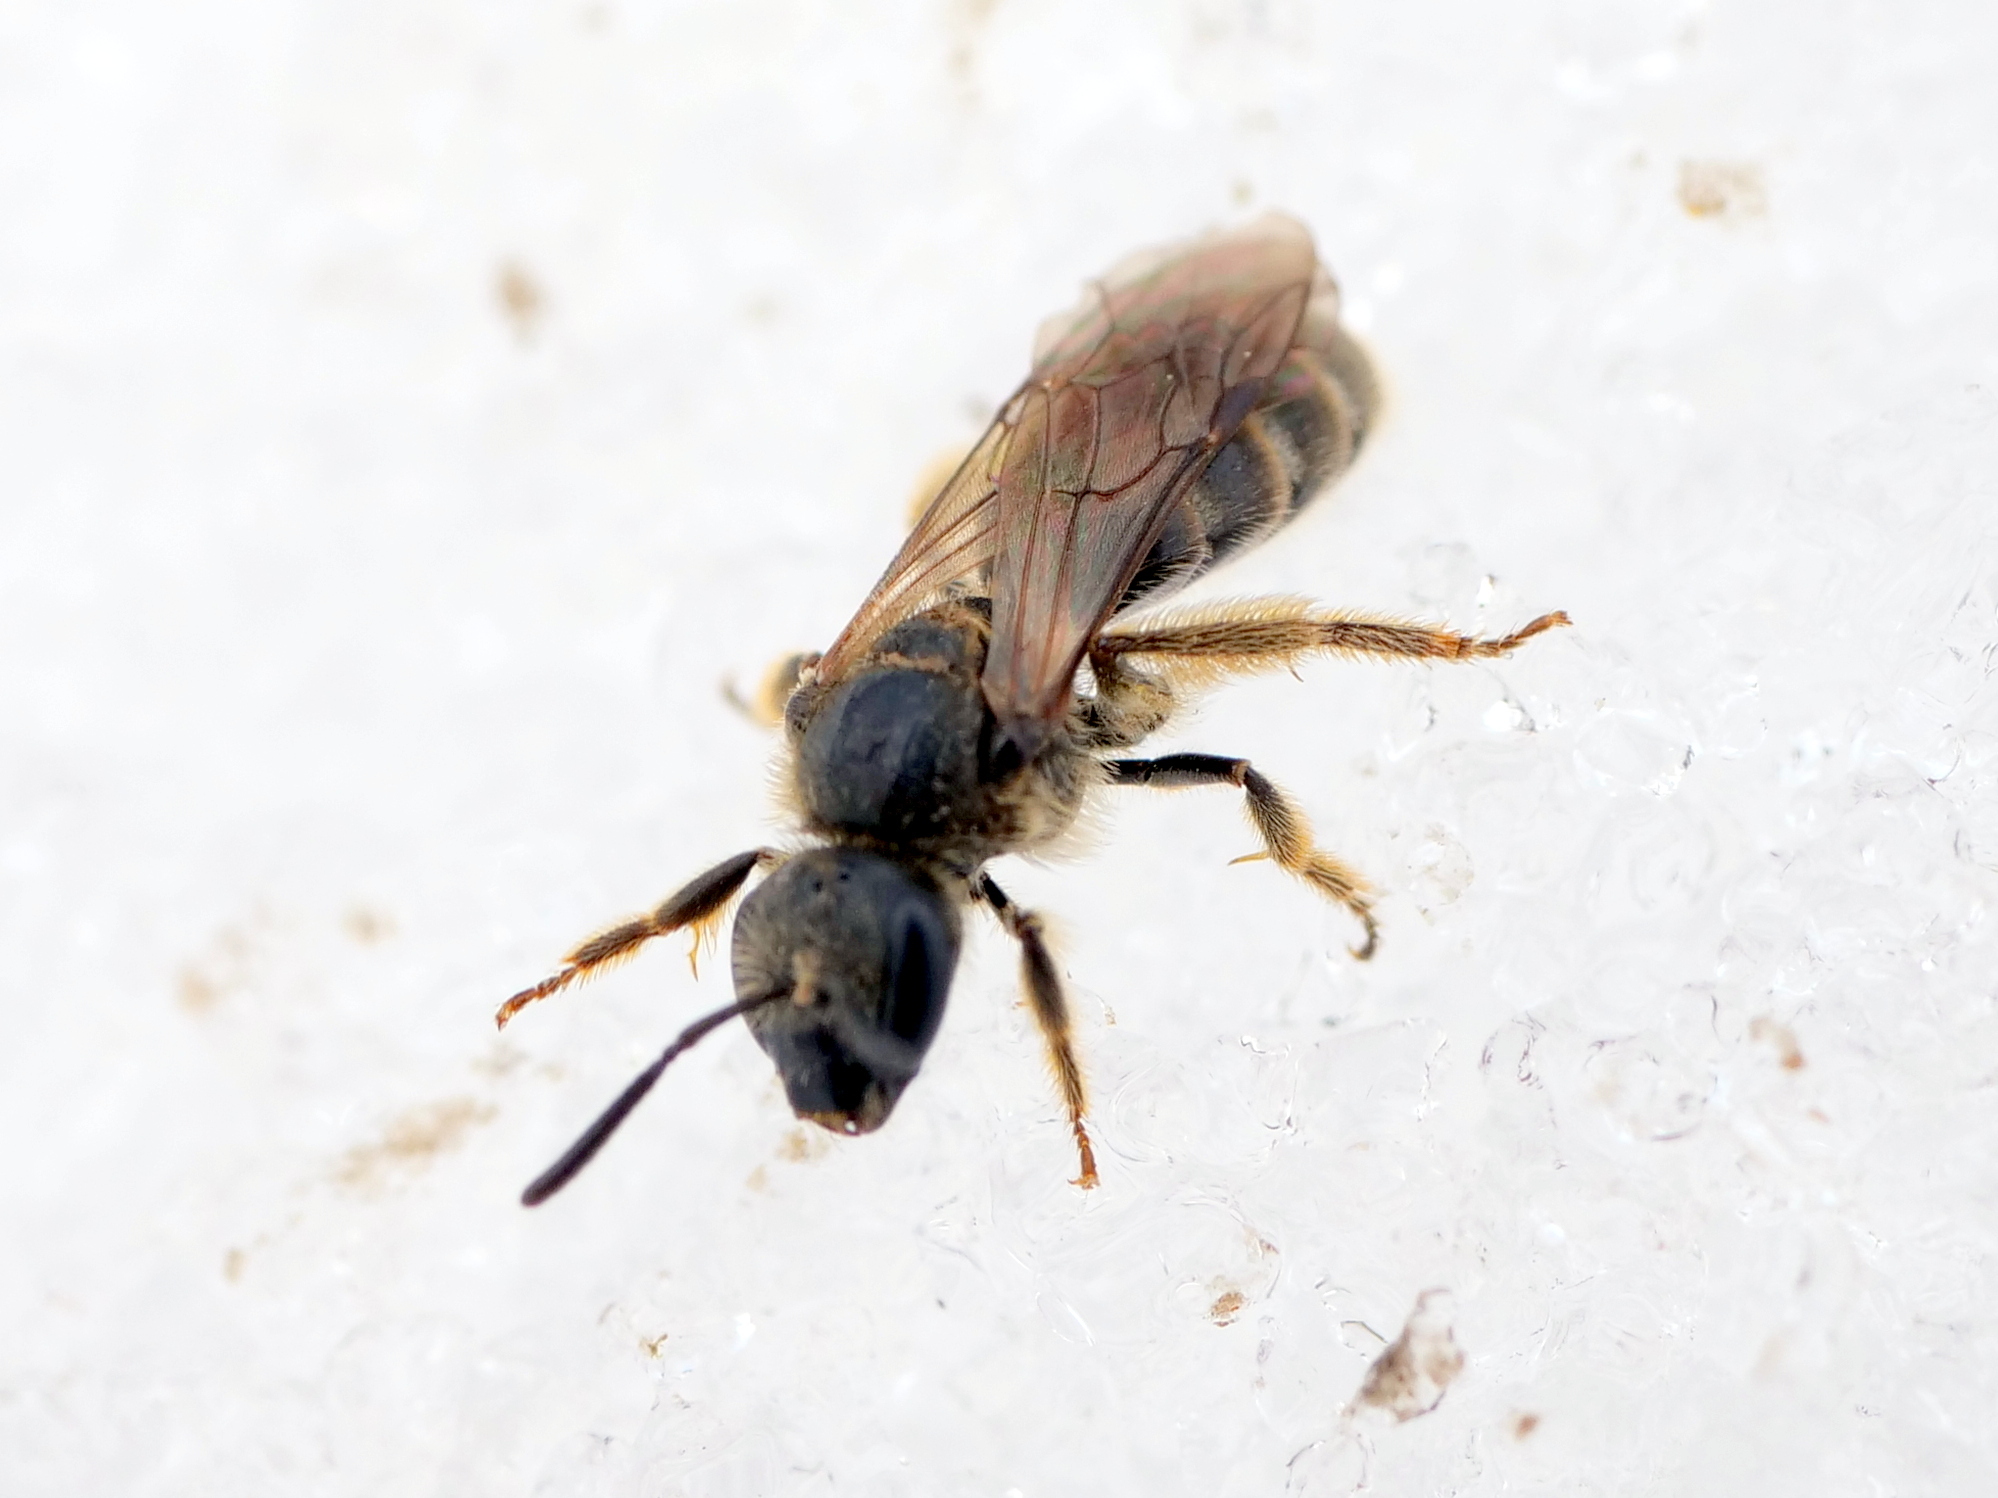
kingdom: Animalia
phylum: Arthropoda
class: Insecta
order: Hymenoptera
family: Halictidae
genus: Lasioglossum
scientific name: Lasioglossum
